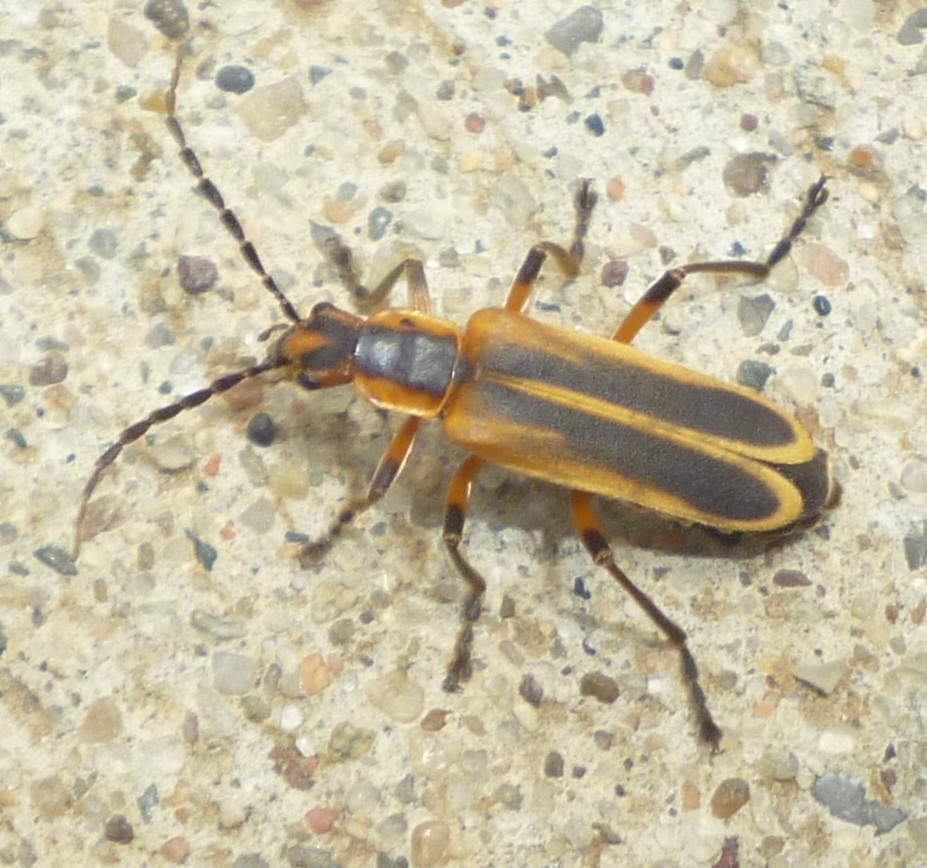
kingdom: Animalia
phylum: Arthropoda
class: Insecta
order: Coleoptera
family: Cantharidae
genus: Chauliognathus
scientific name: Chauliognathus marginatus
